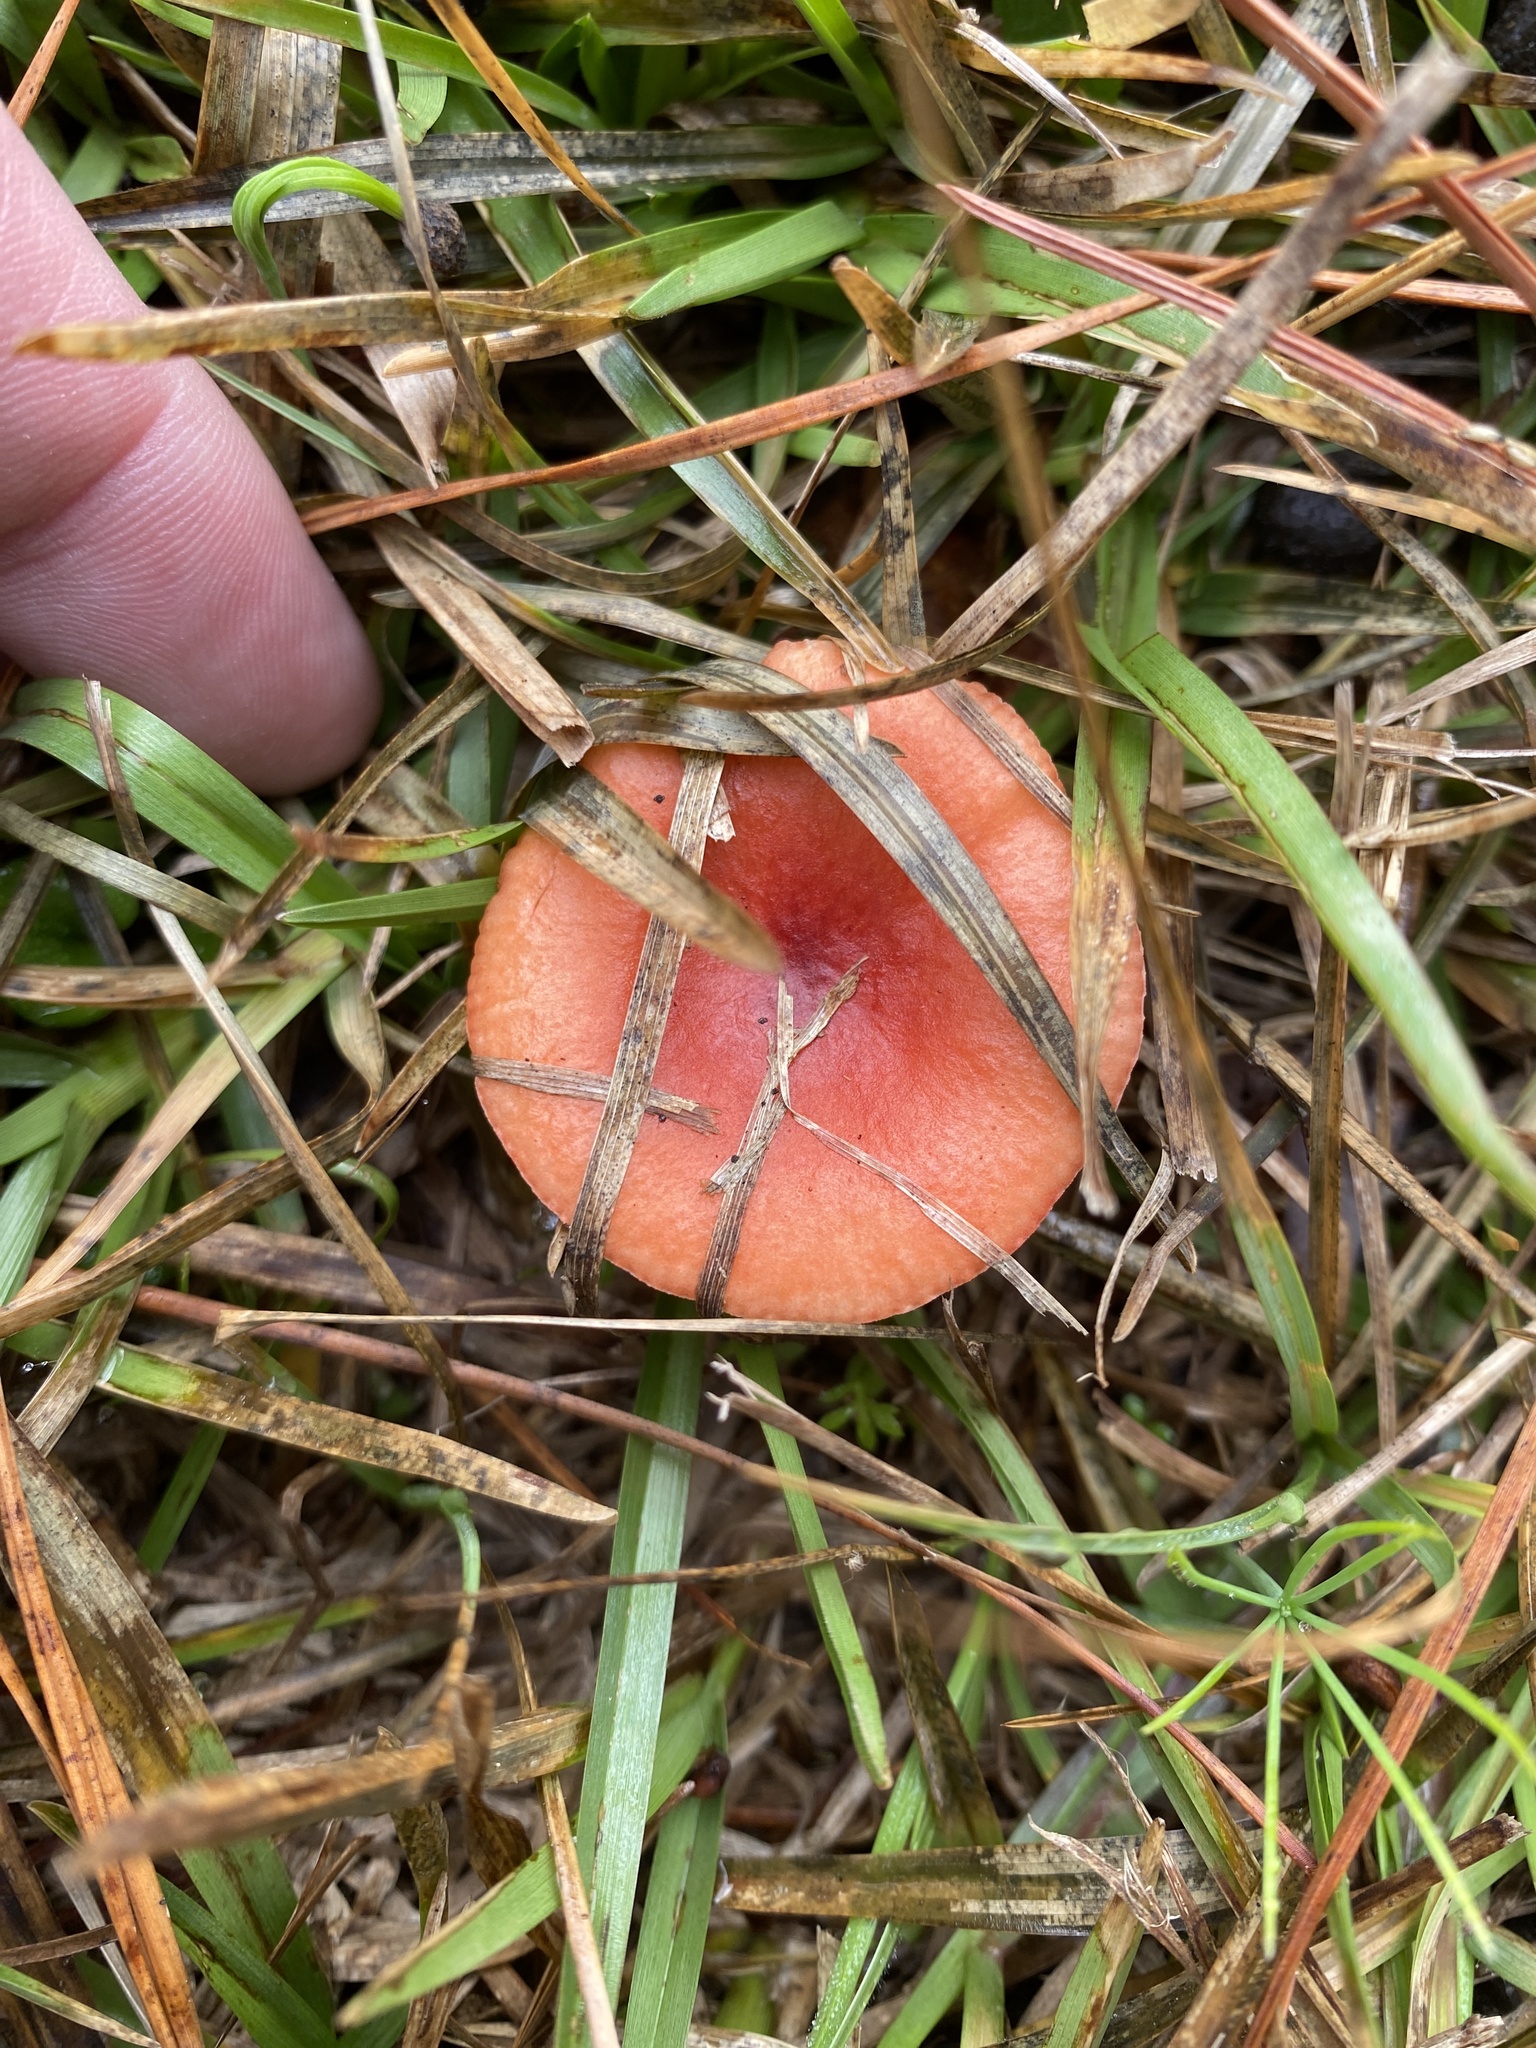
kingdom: Fungi
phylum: Basidiomycota
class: Agaricomycetes
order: Russulales
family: Russulaceae
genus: Russula
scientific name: Russula
